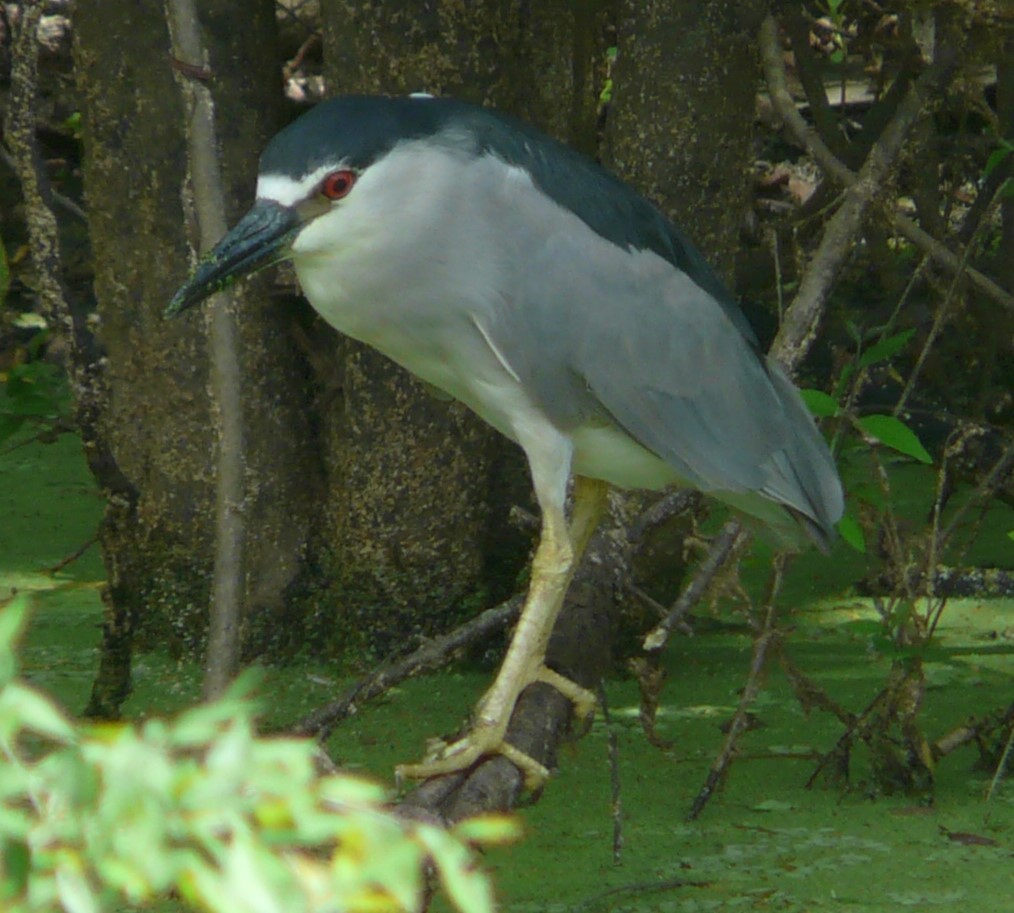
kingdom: Animalia
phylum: Chordata
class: Aves
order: Pelecaniformes
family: Ardeidae
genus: Nycticorax
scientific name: Nycticorax nycticorax
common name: Black-crowned night heron
